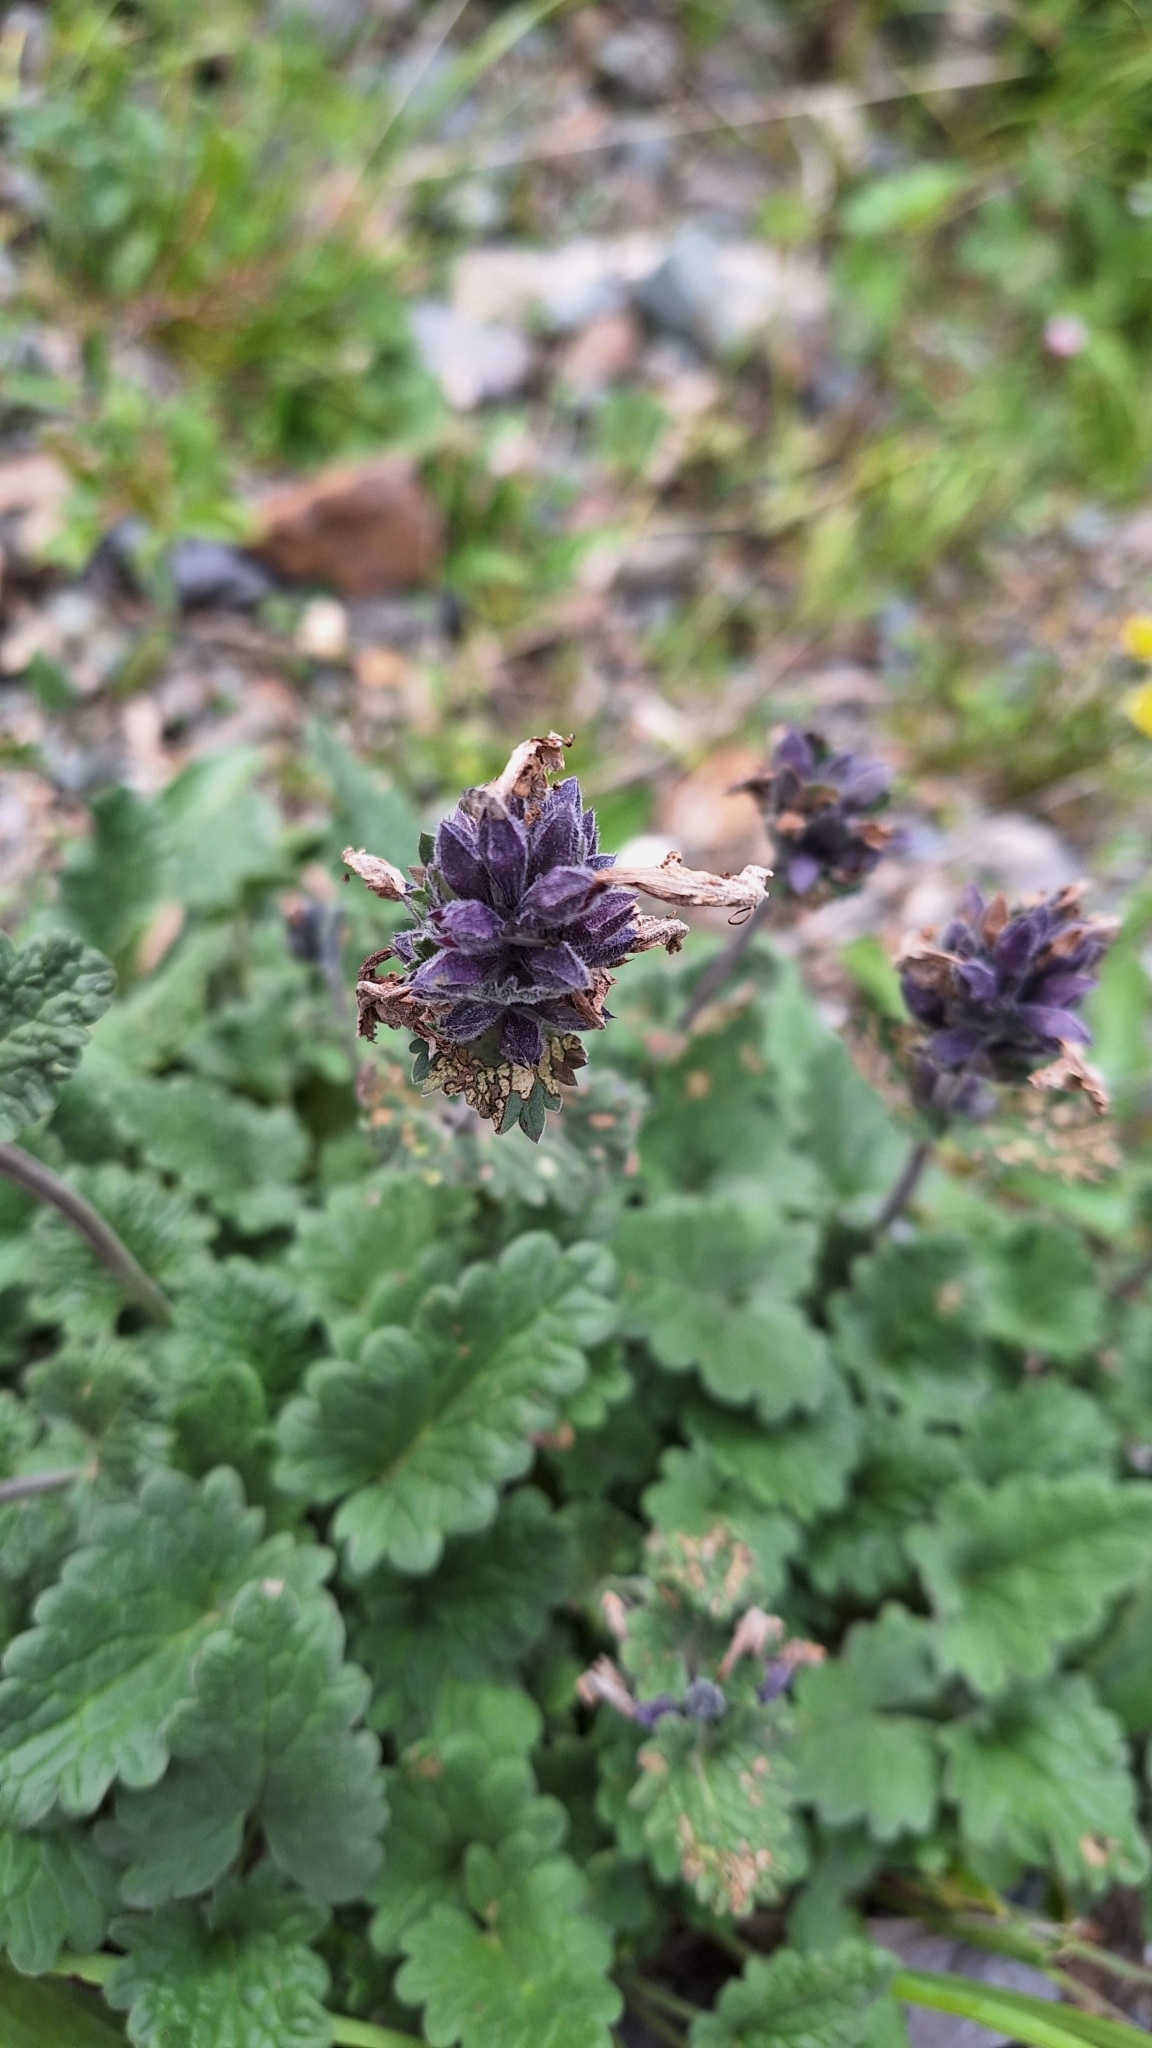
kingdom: Plantae
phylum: Tracheophyta
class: Magnoliopsida
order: Lamiales
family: Lamiaceae
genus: Dracocephalum
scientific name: Dracocephalum imberbe
